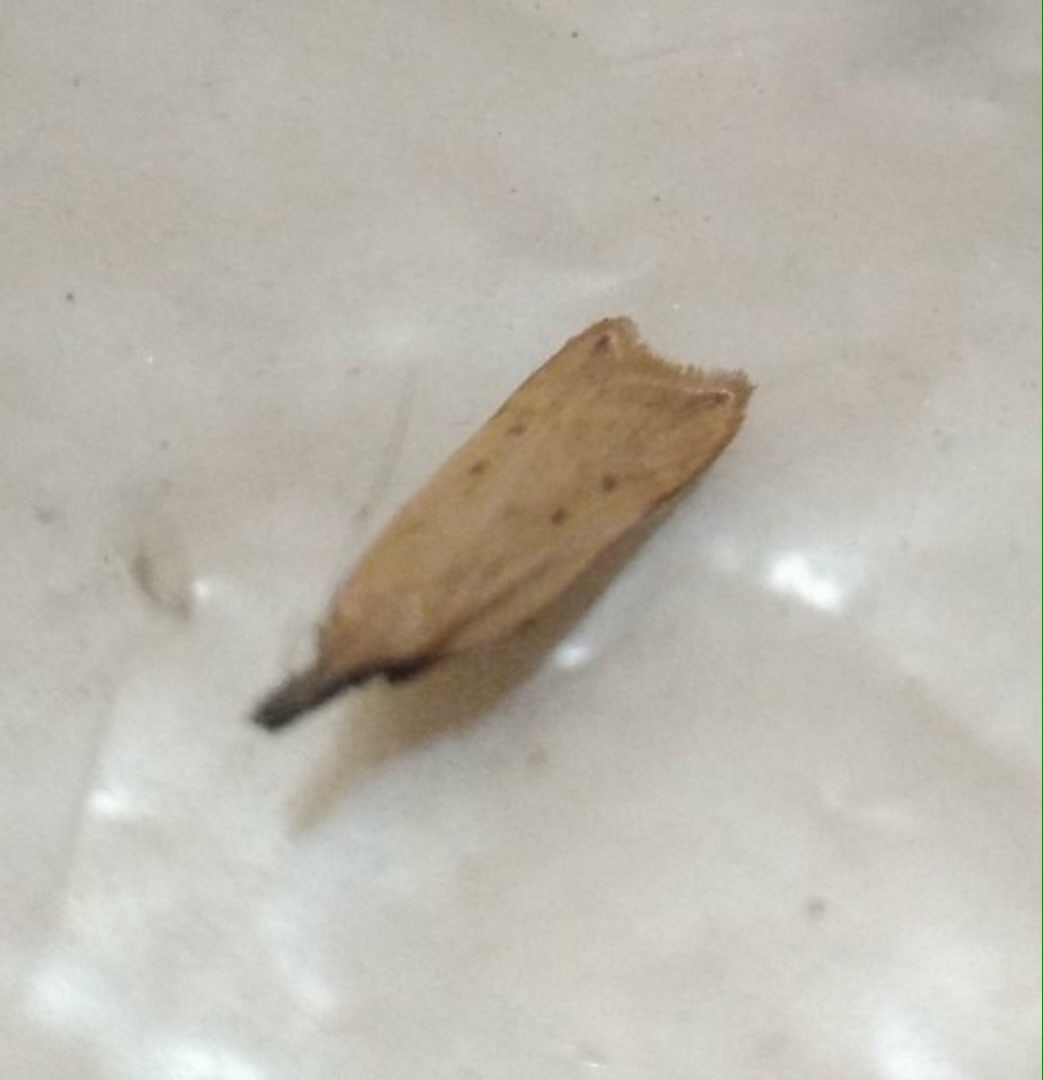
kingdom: Animalia
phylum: Arthropoda
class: Insecta
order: Lepidoptera
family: Gelechiidae
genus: Dichomeris
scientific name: Dichomeris limosellus
